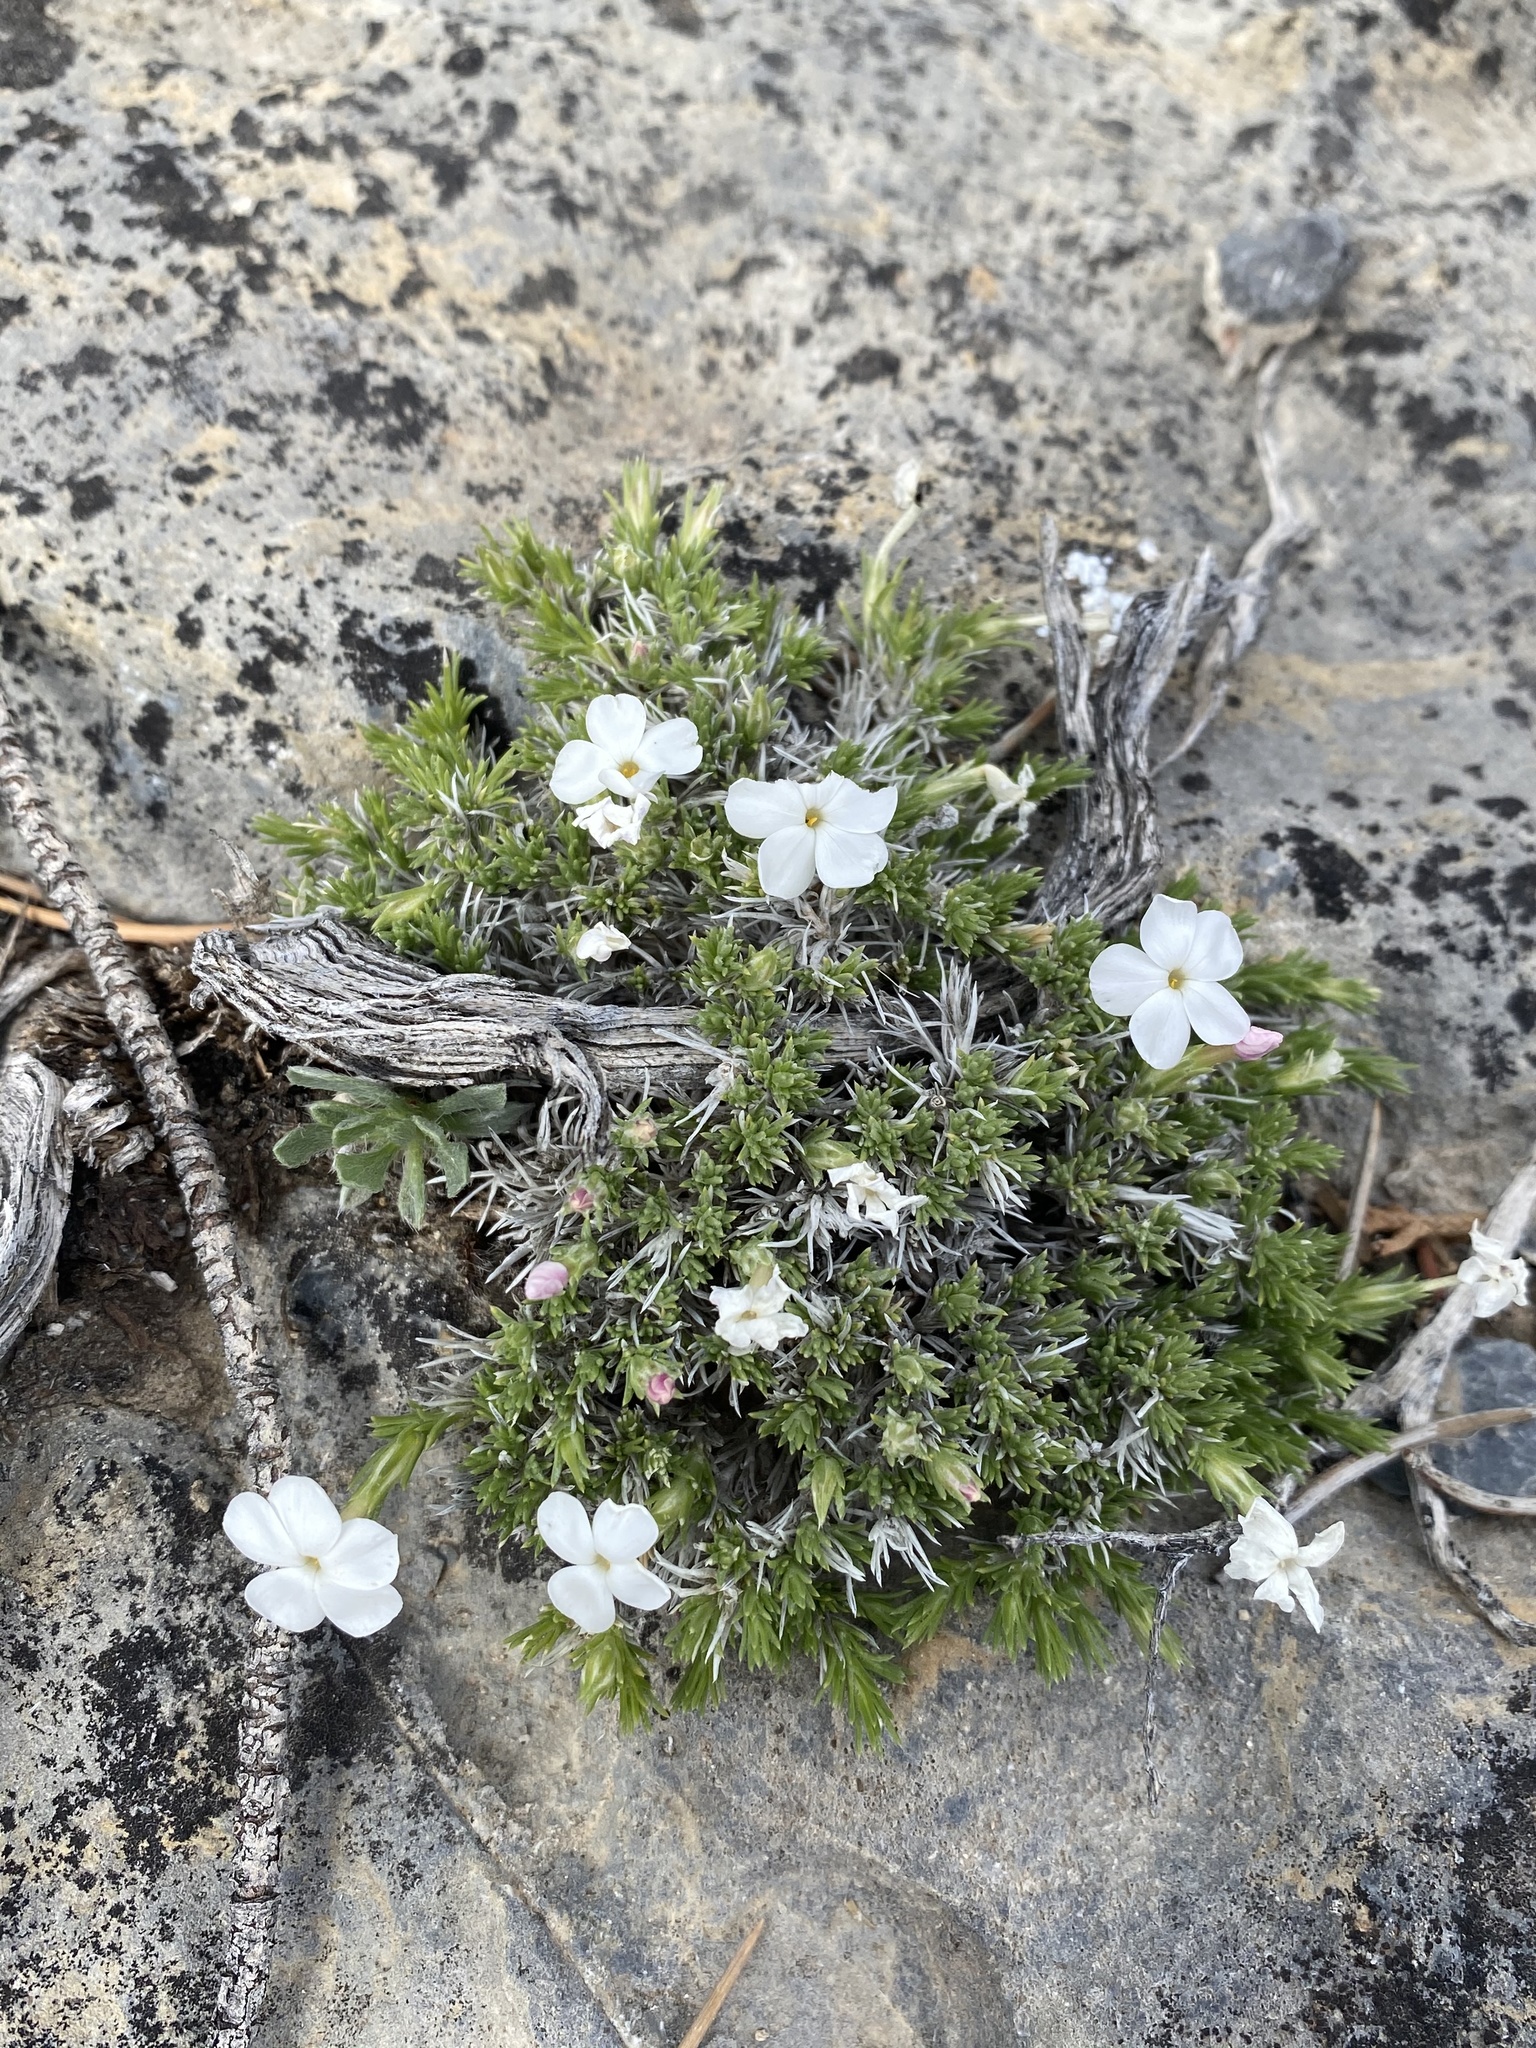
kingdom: Plantae
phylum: Tracheophyta
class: Magnoliopsida
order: Ericales
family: Polemoniaceae
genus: Phlox
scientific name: Phlox hoodii
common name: Moss phlox
